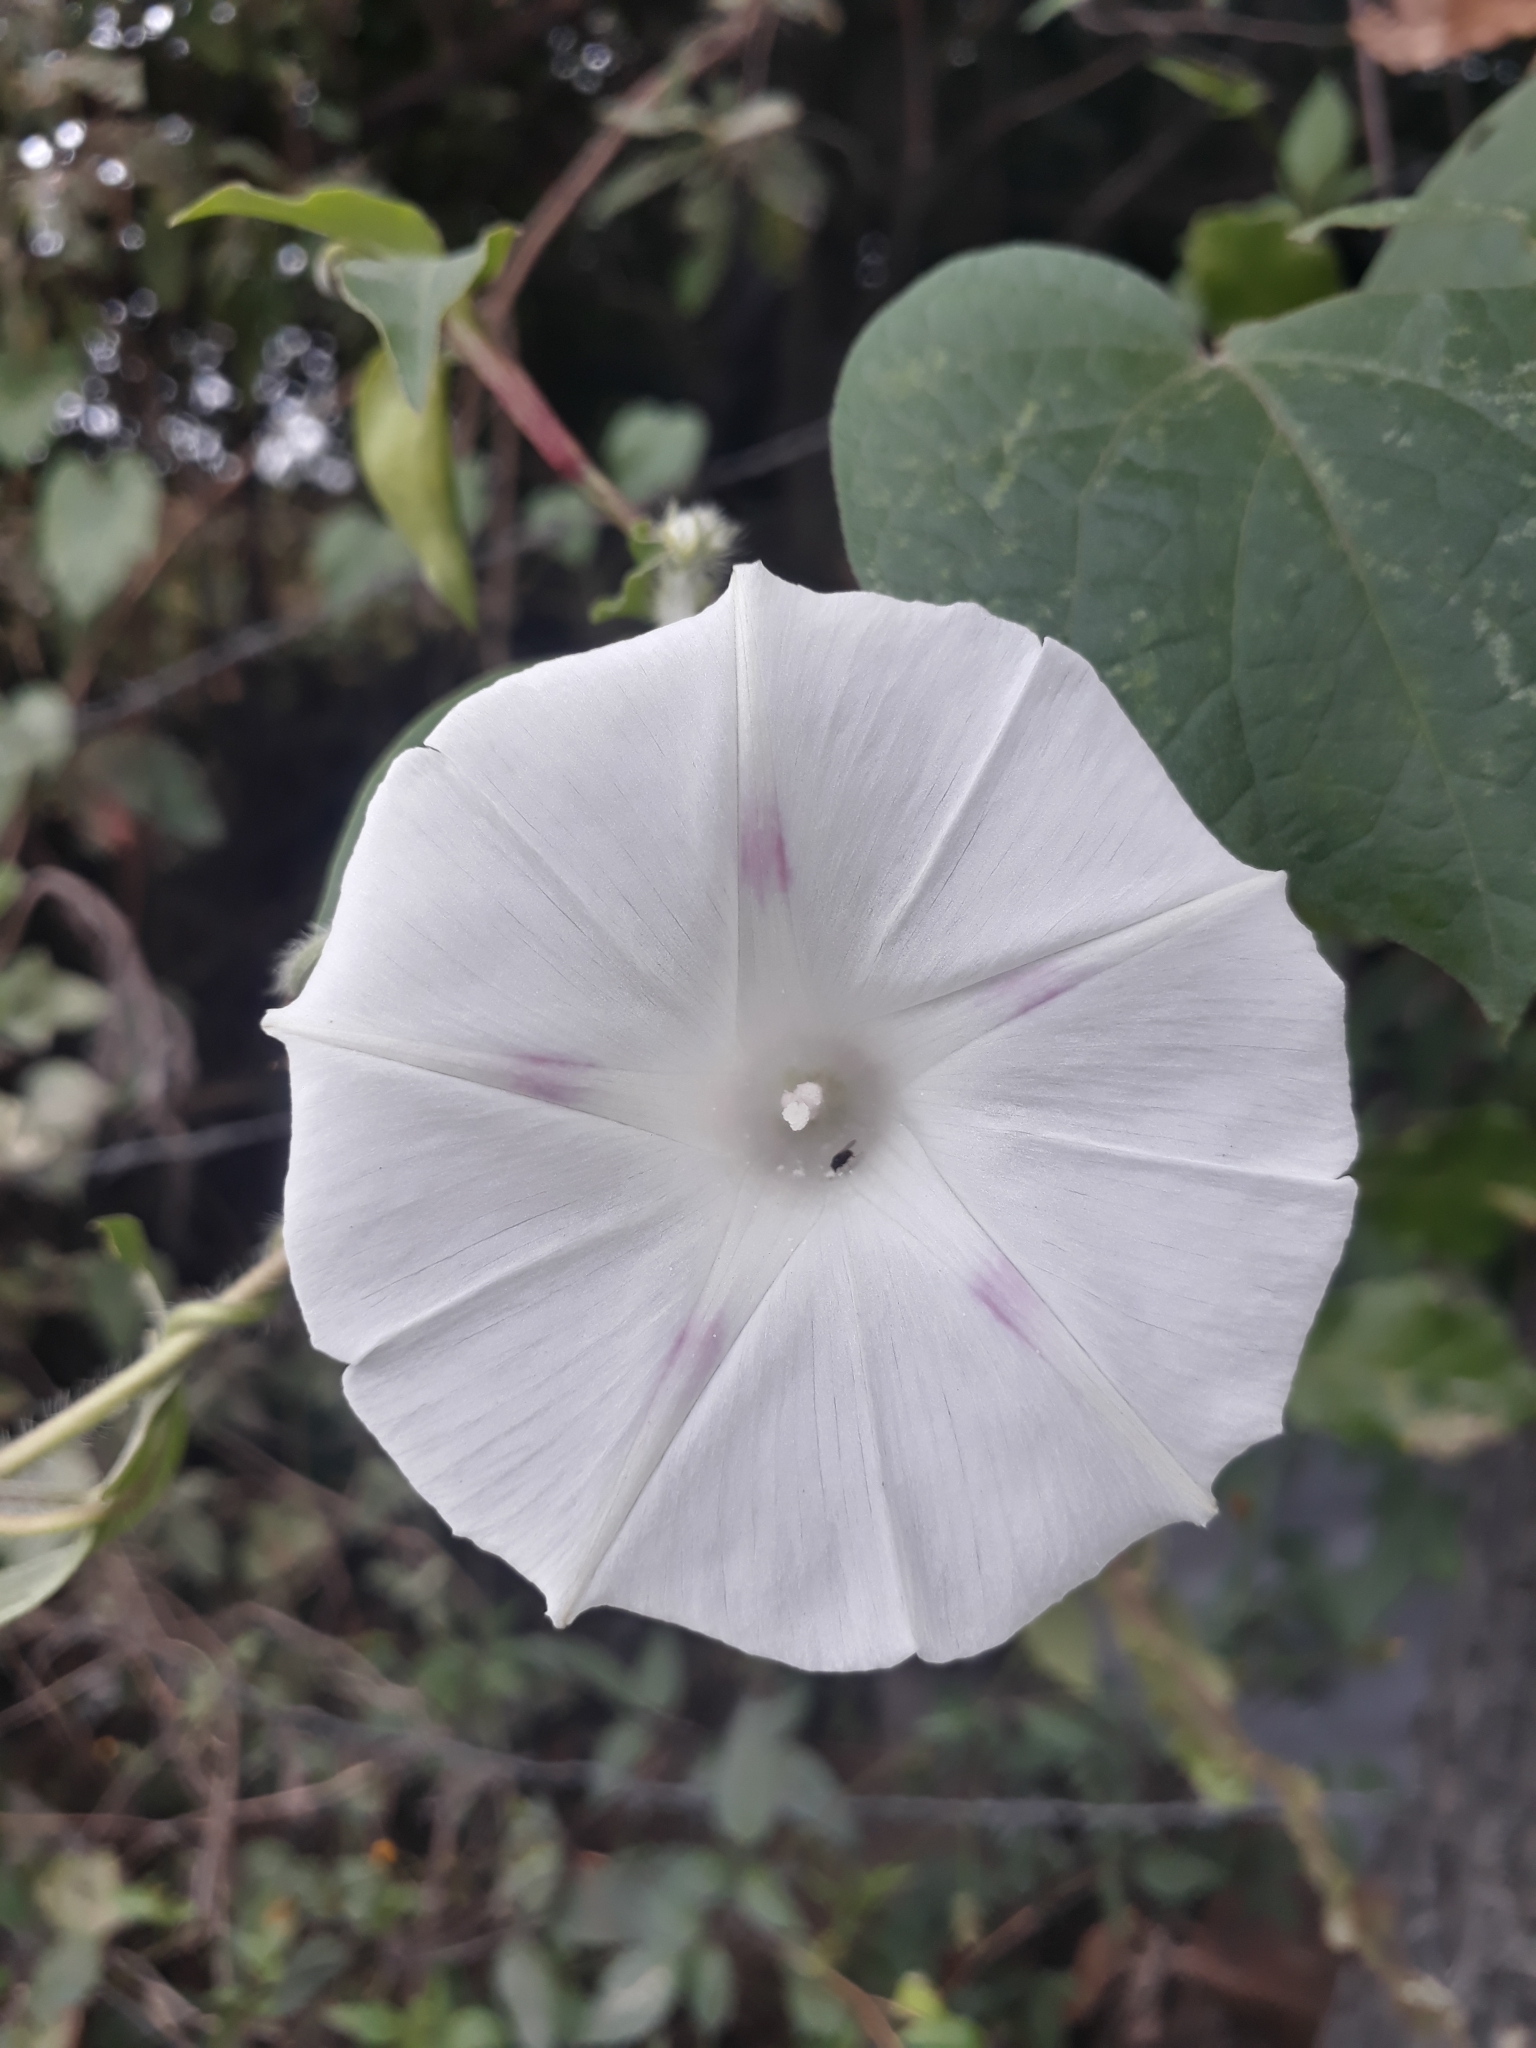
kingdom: Plantae
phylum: Tracheophyta
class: Magnoliopsida
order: Solanales
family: Convolvulaceae
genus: Ipomoea
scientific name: Ipomoea purpurea
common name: Common morning-glory
